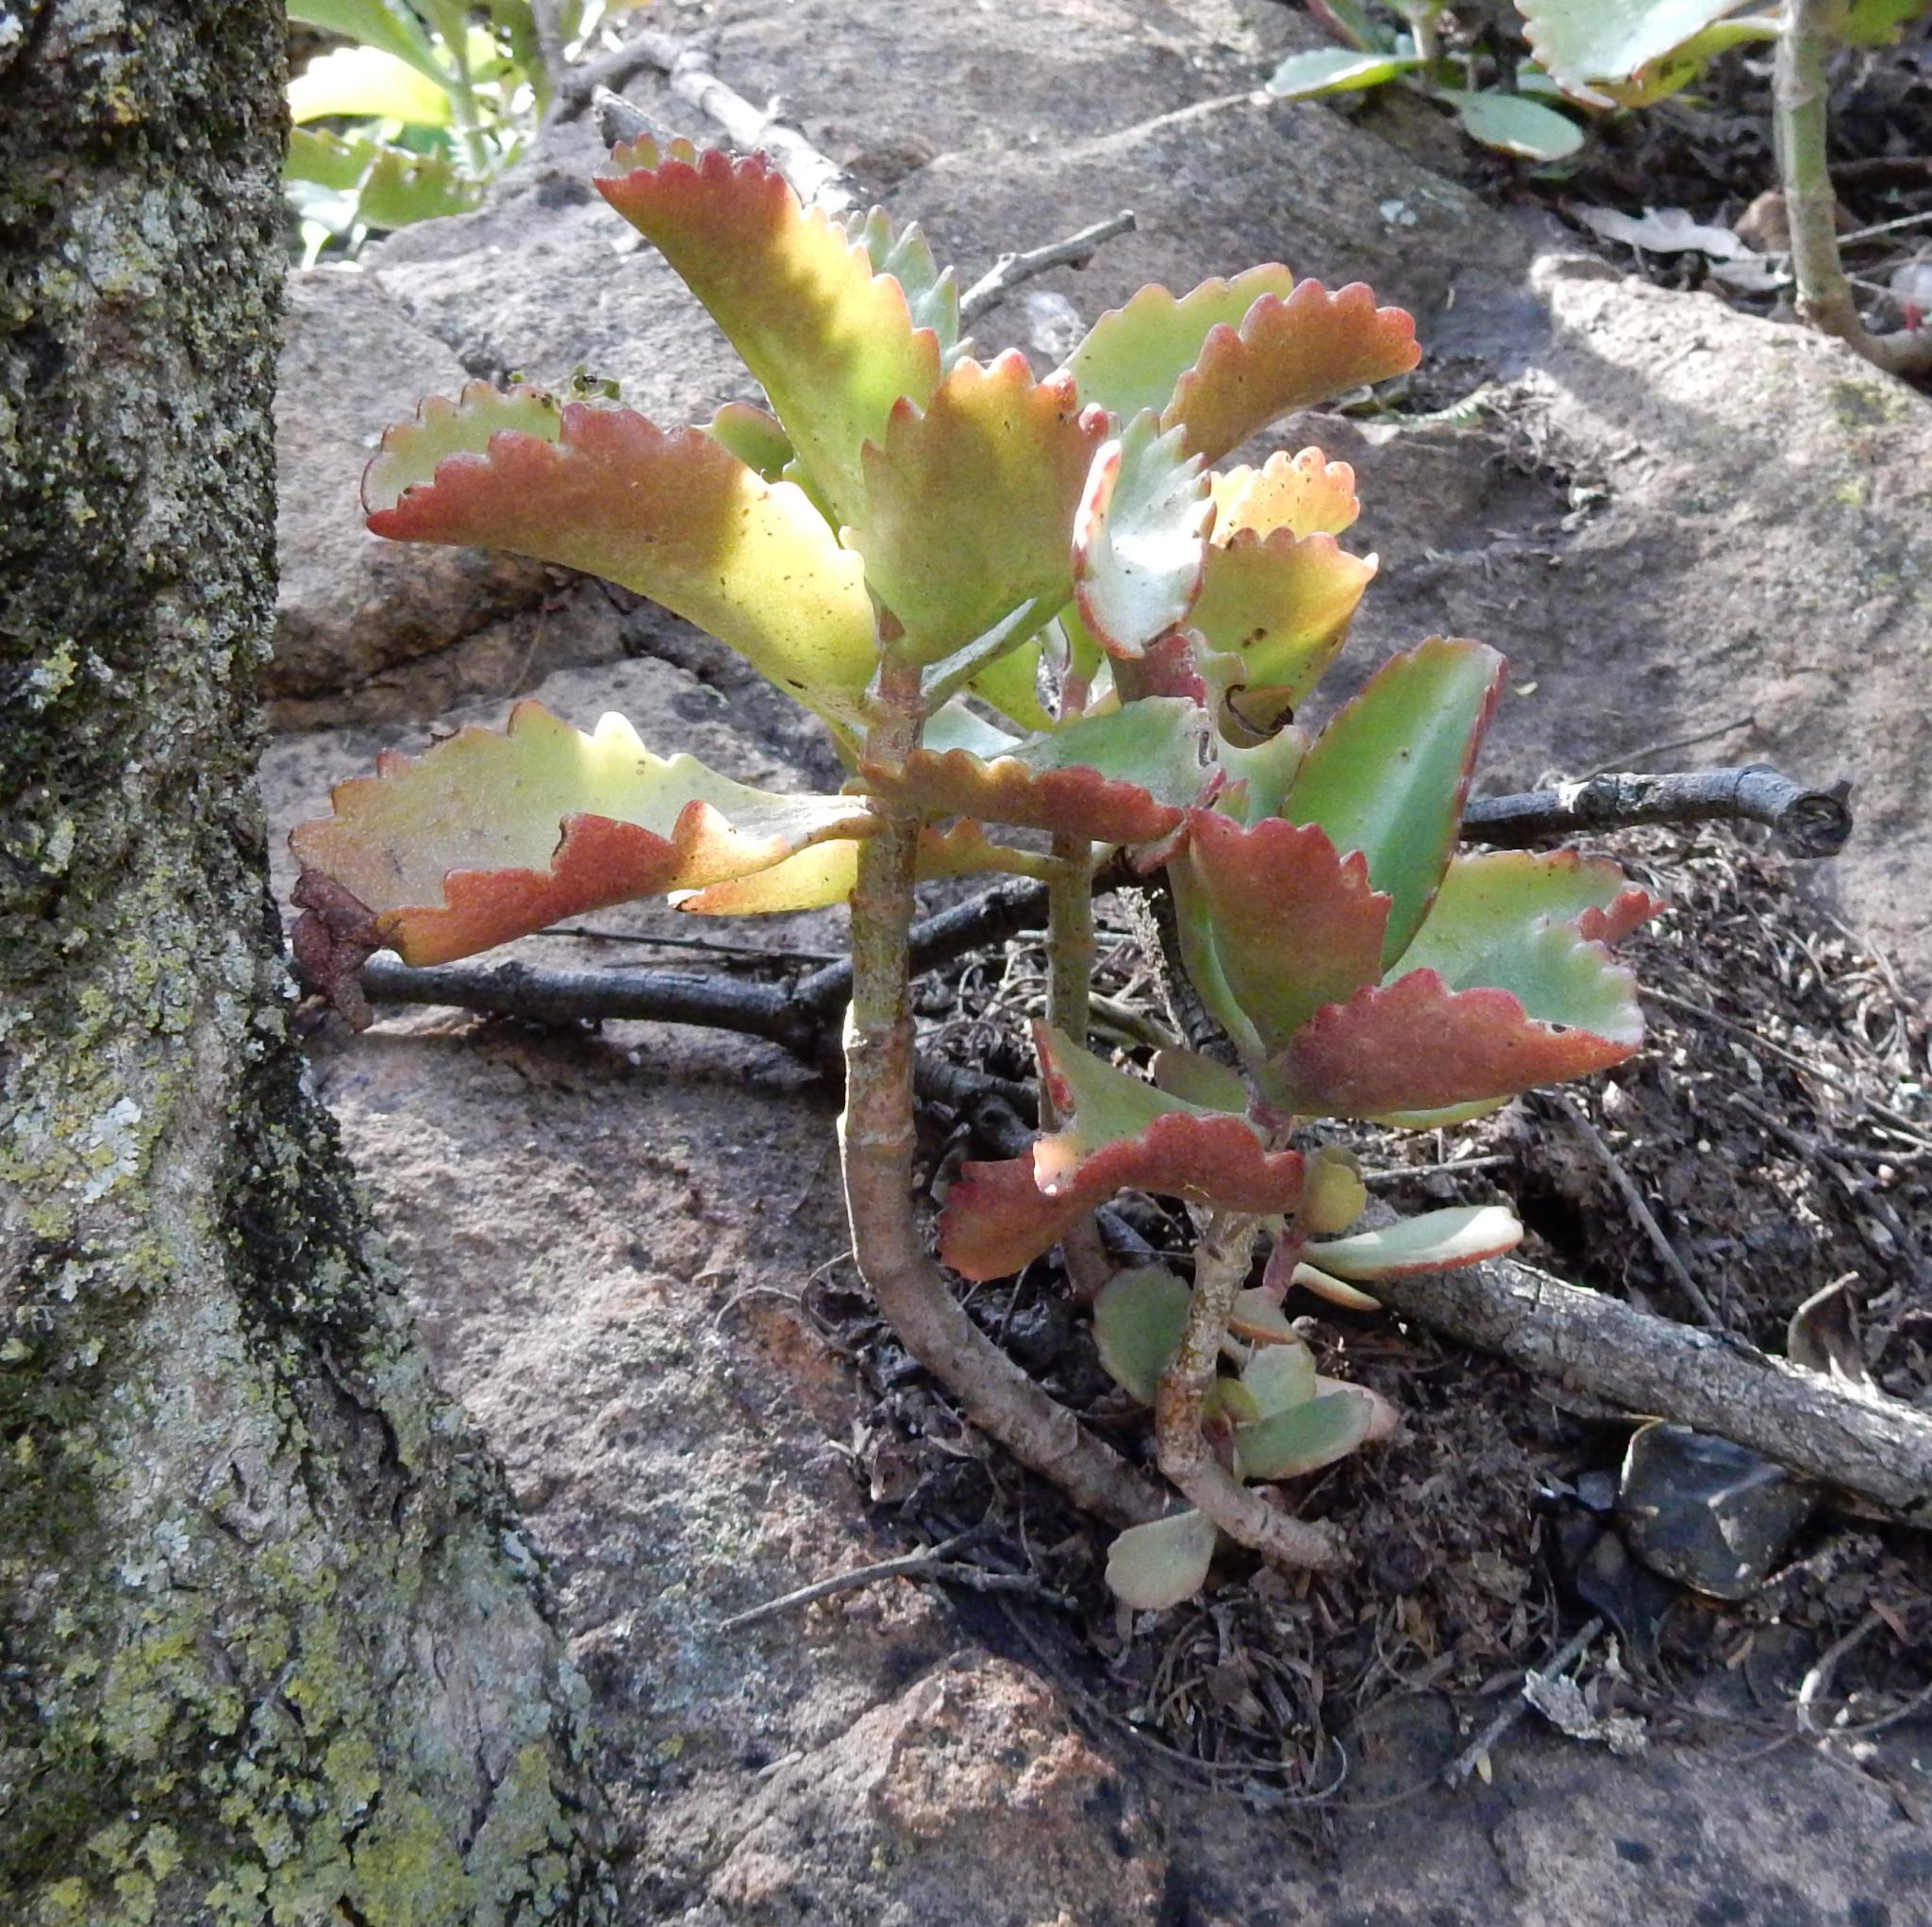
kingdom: Plantae
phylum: Tracheophyta
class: Magnoliopsida
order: Saxifragales
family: Crassulaceae
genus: Kalanchoe
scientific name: Kalanchoe sexangularis
